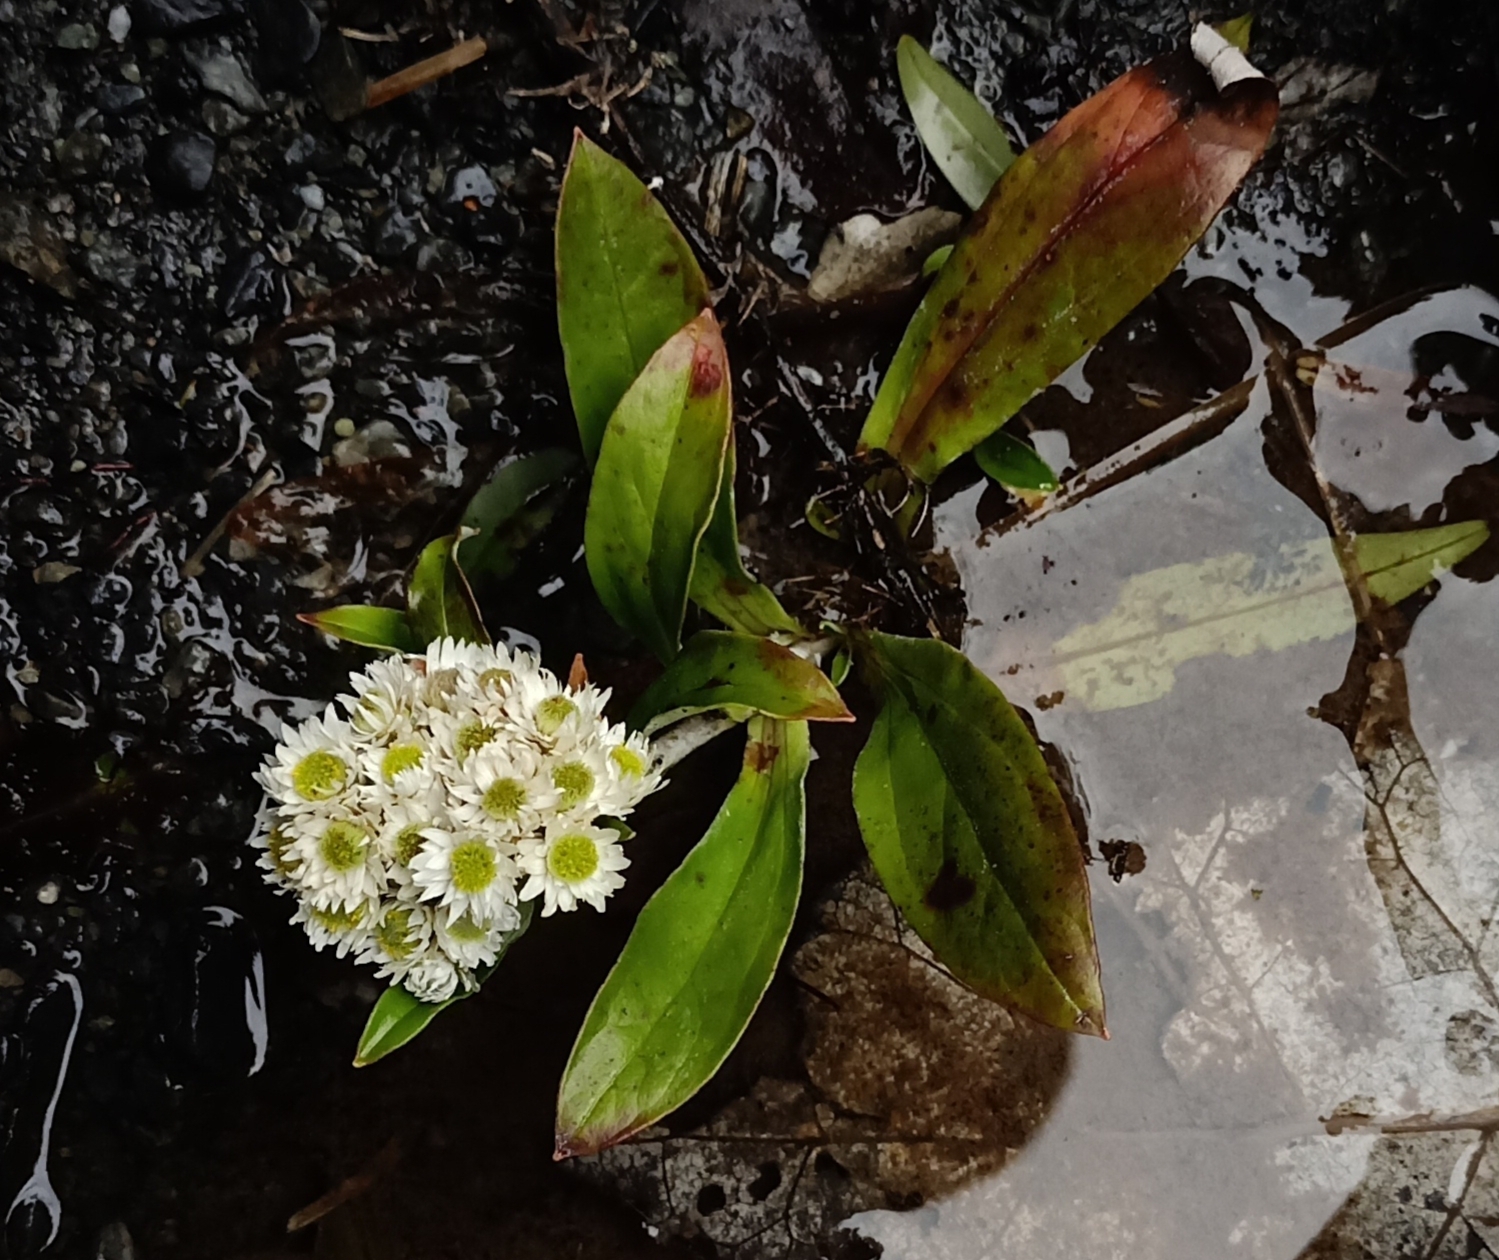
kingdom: Plantae
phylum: Tracheophyta
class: Magnoliopsida
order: Asterales
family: Asteraceae
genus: Anaphalioides
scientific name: Anaphalioides trinervis
